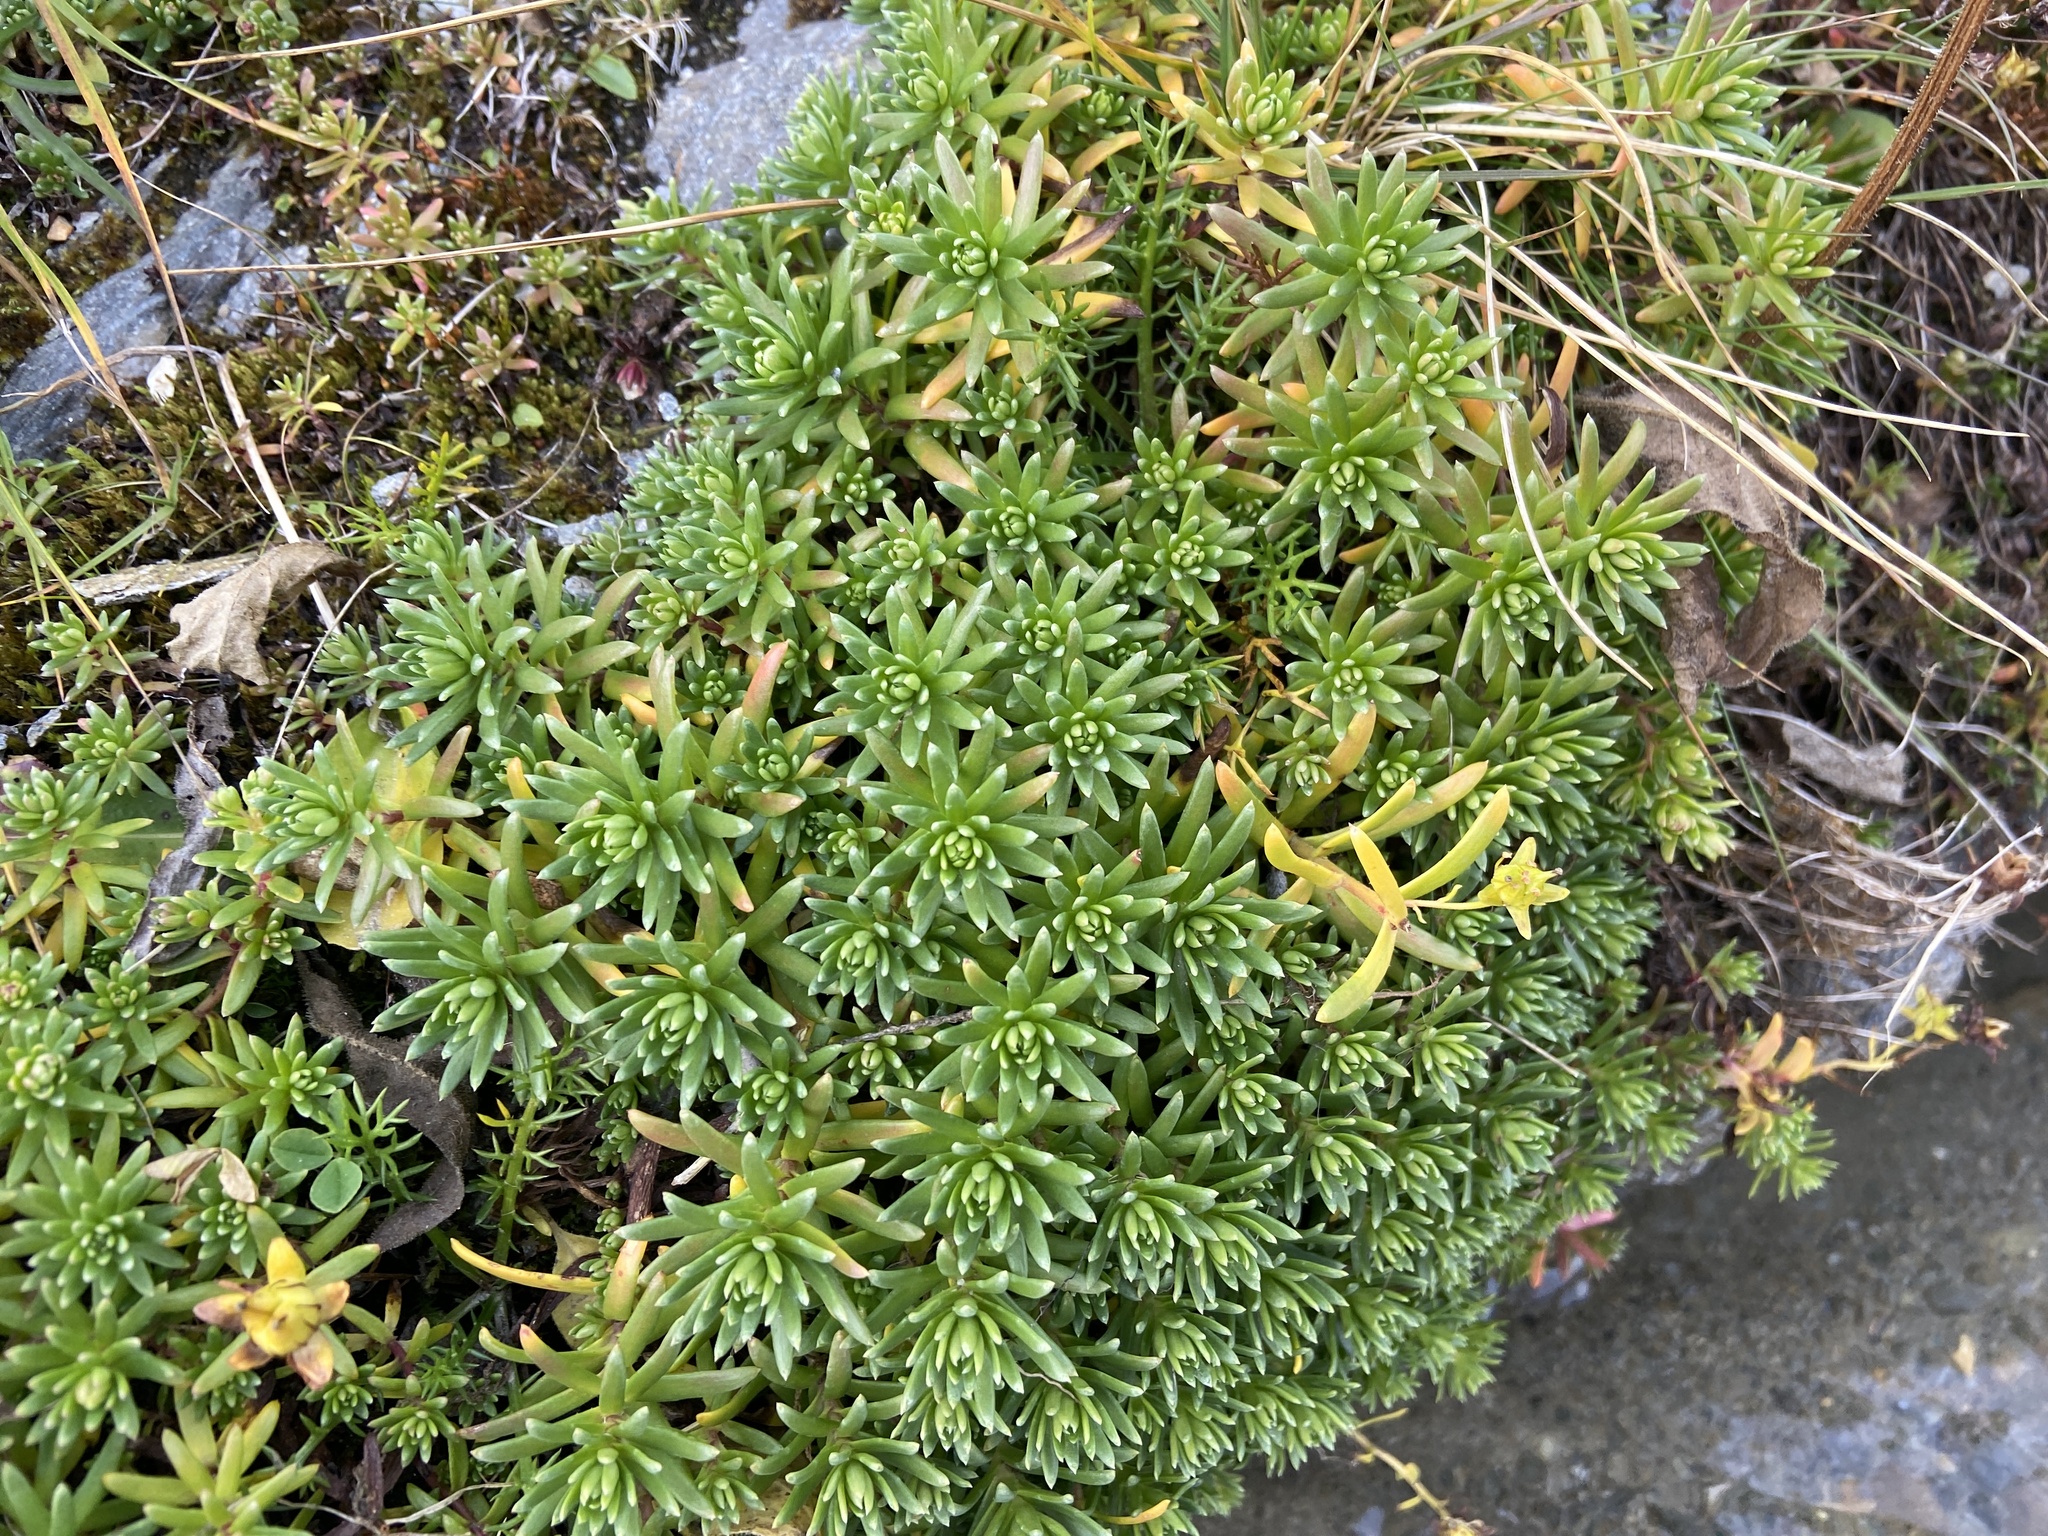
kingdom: Plantae
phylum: Tracheophyta
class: Magnoliopsida
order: Saxifragales
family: Saxifragaceae
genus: Saxifraga
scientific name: Saxifraga aizoides
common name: Yellow mountain saxifrage
